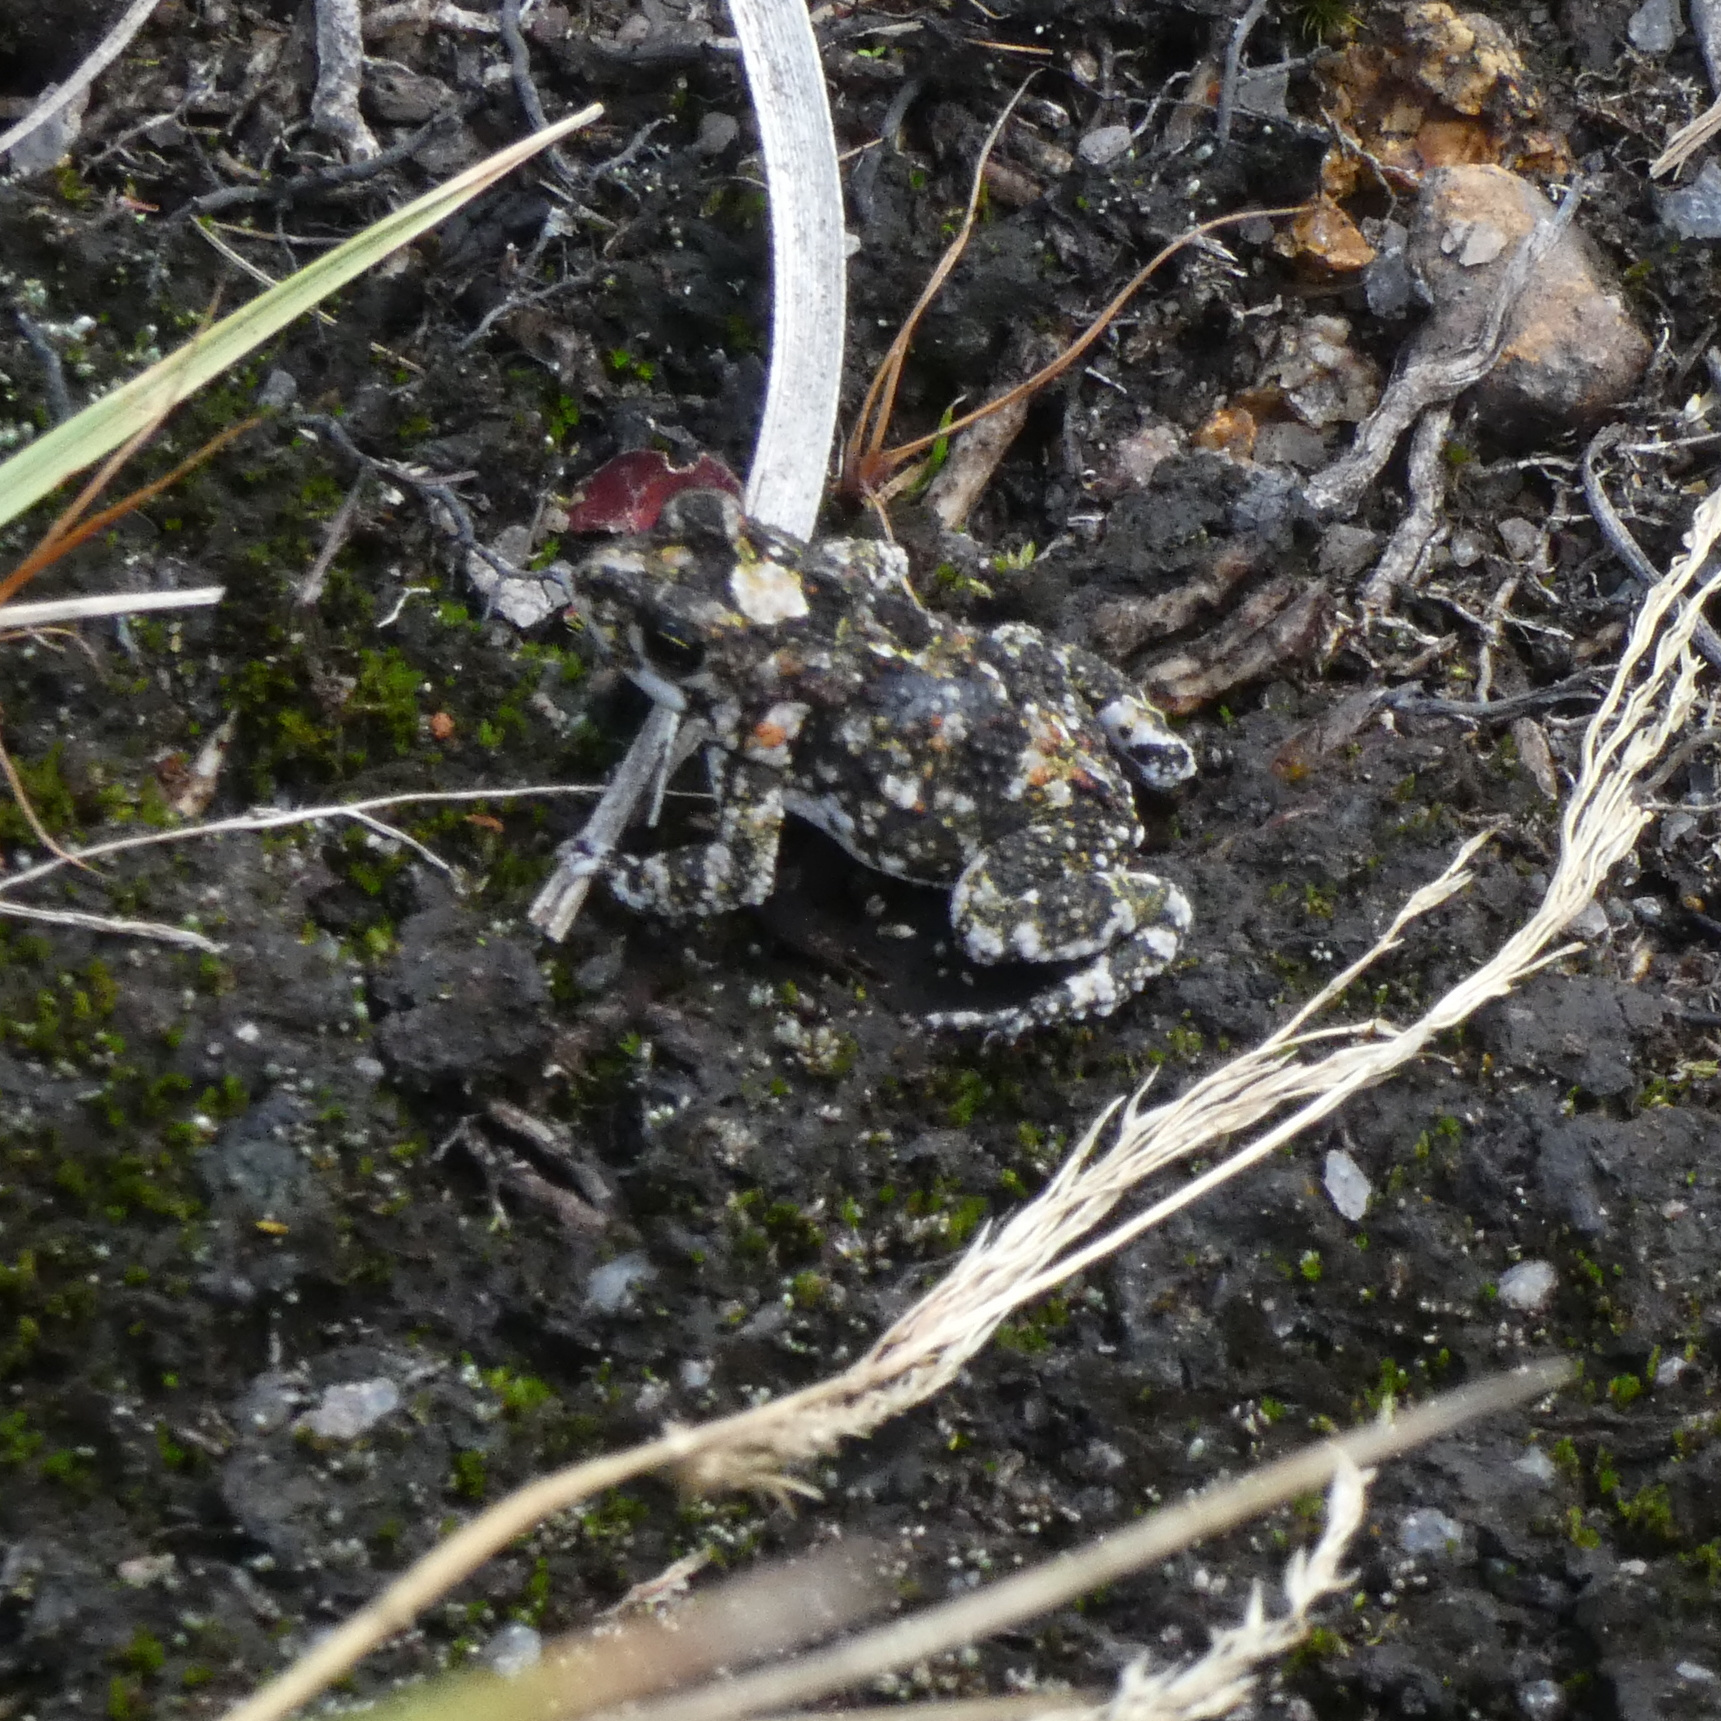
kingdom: Animalia
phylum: Chordata
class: Amphibia
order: Anura
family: Bufonidae
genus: Poyntonophrynus
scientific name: Poyntonophrynus fenoulheti
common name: Fenoulhet's toad
